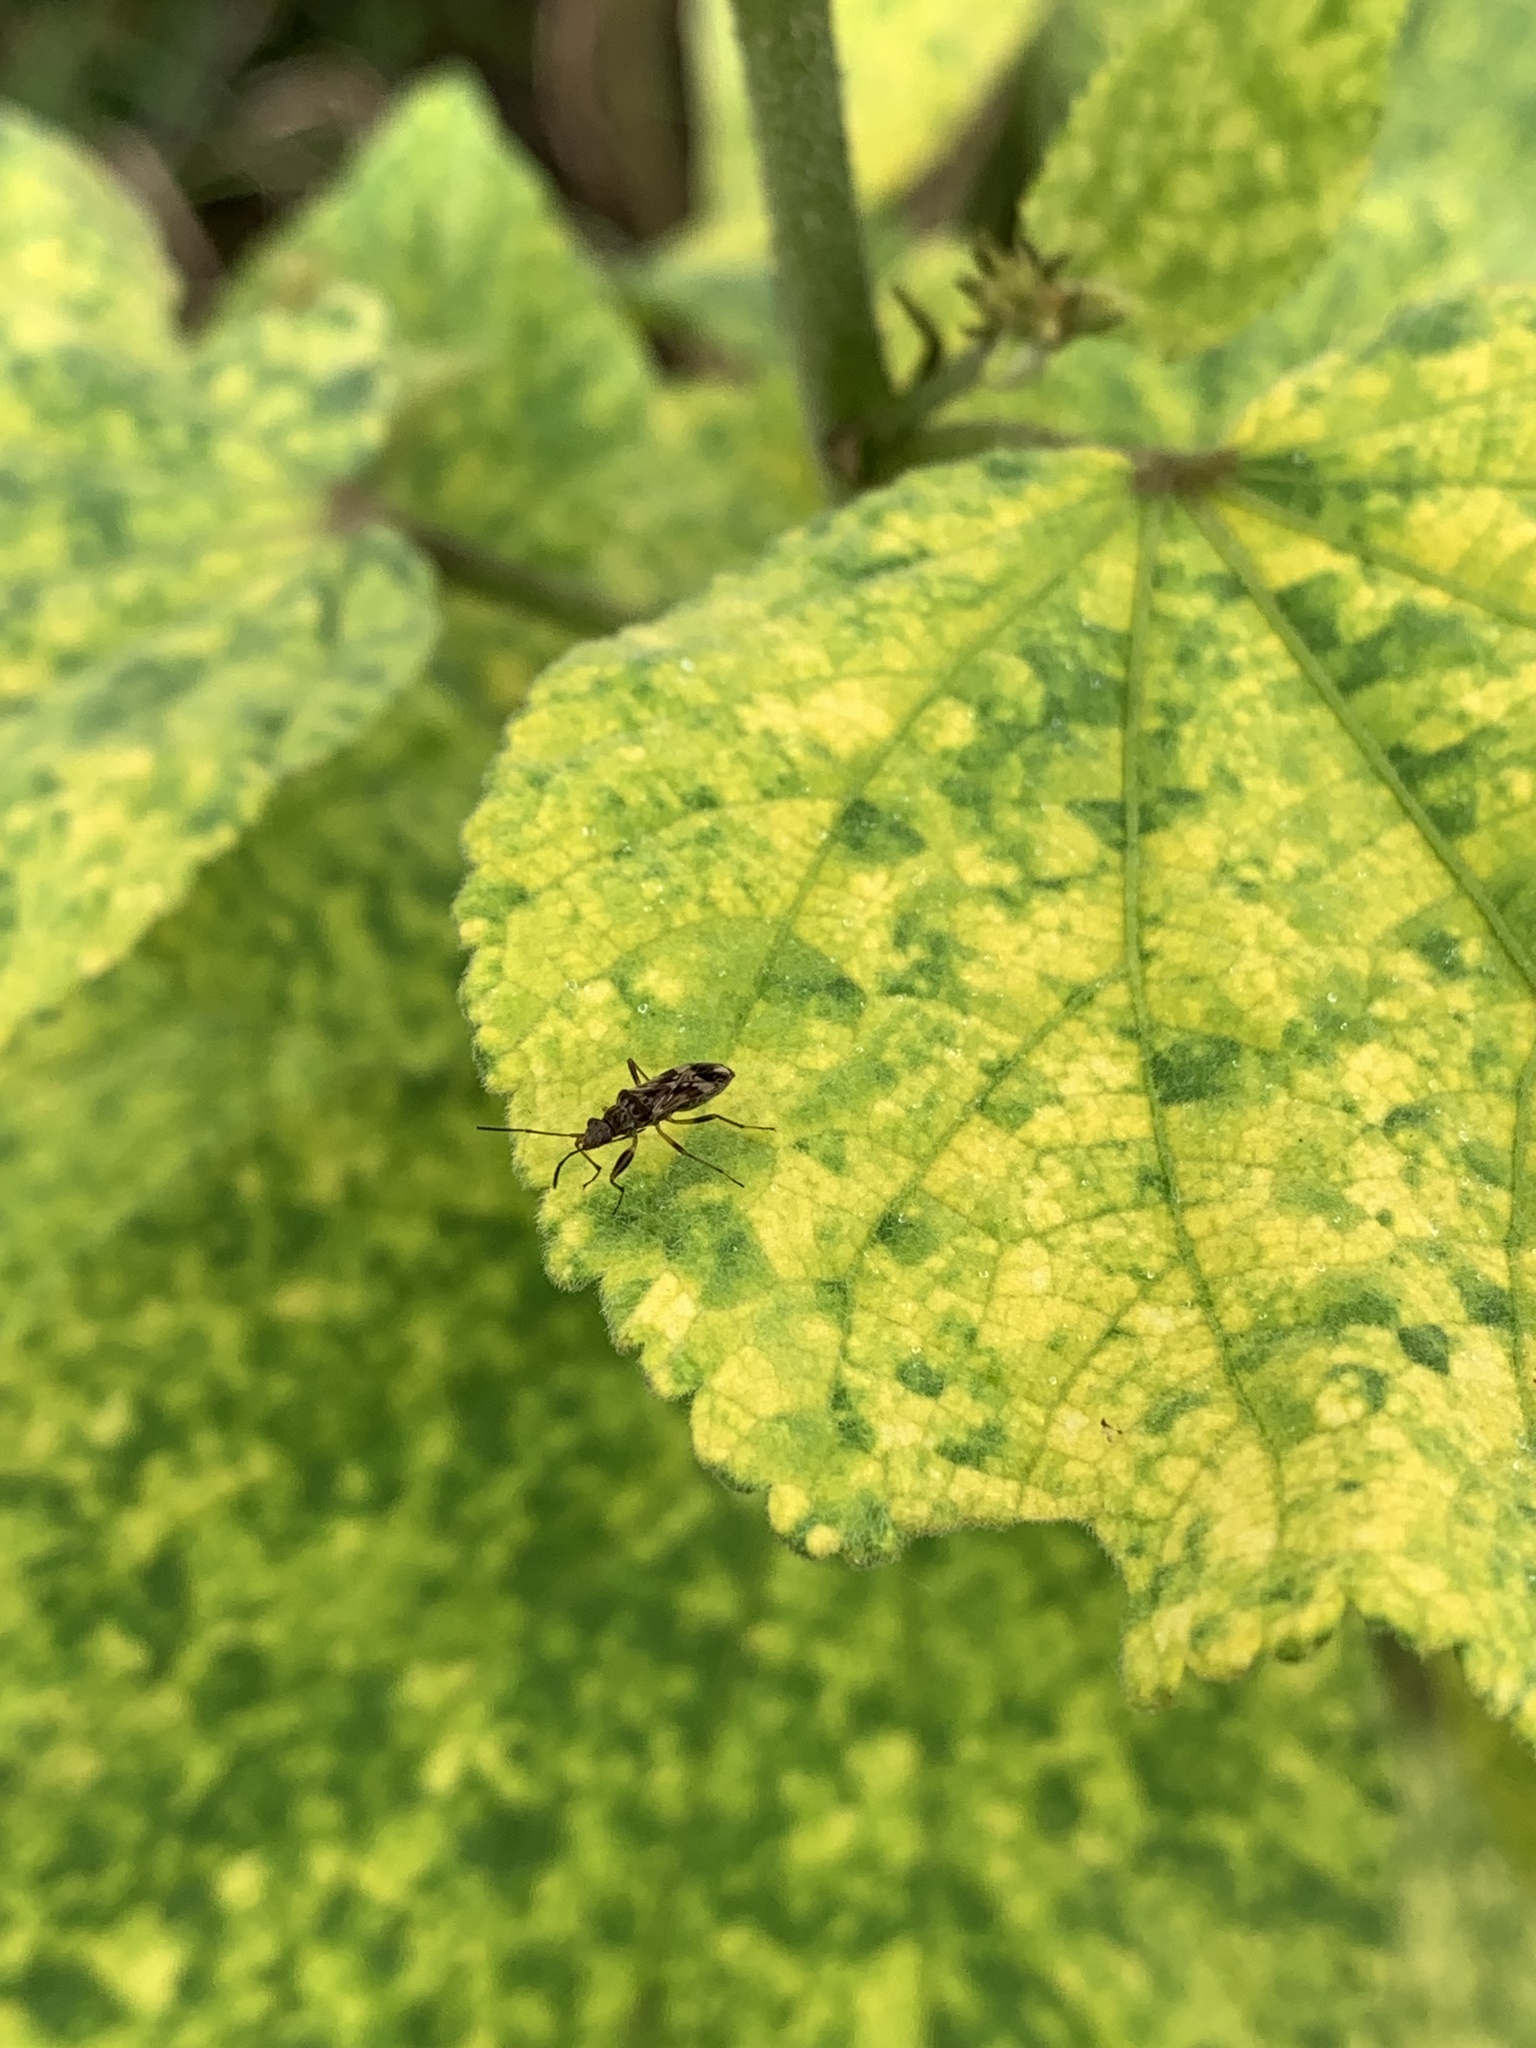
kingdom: Animalia
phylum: Arthropoda
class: Insecta
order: Hemiptera
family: Rhyparochromidae
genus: Neopamera
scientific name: Neopamera bilobata
